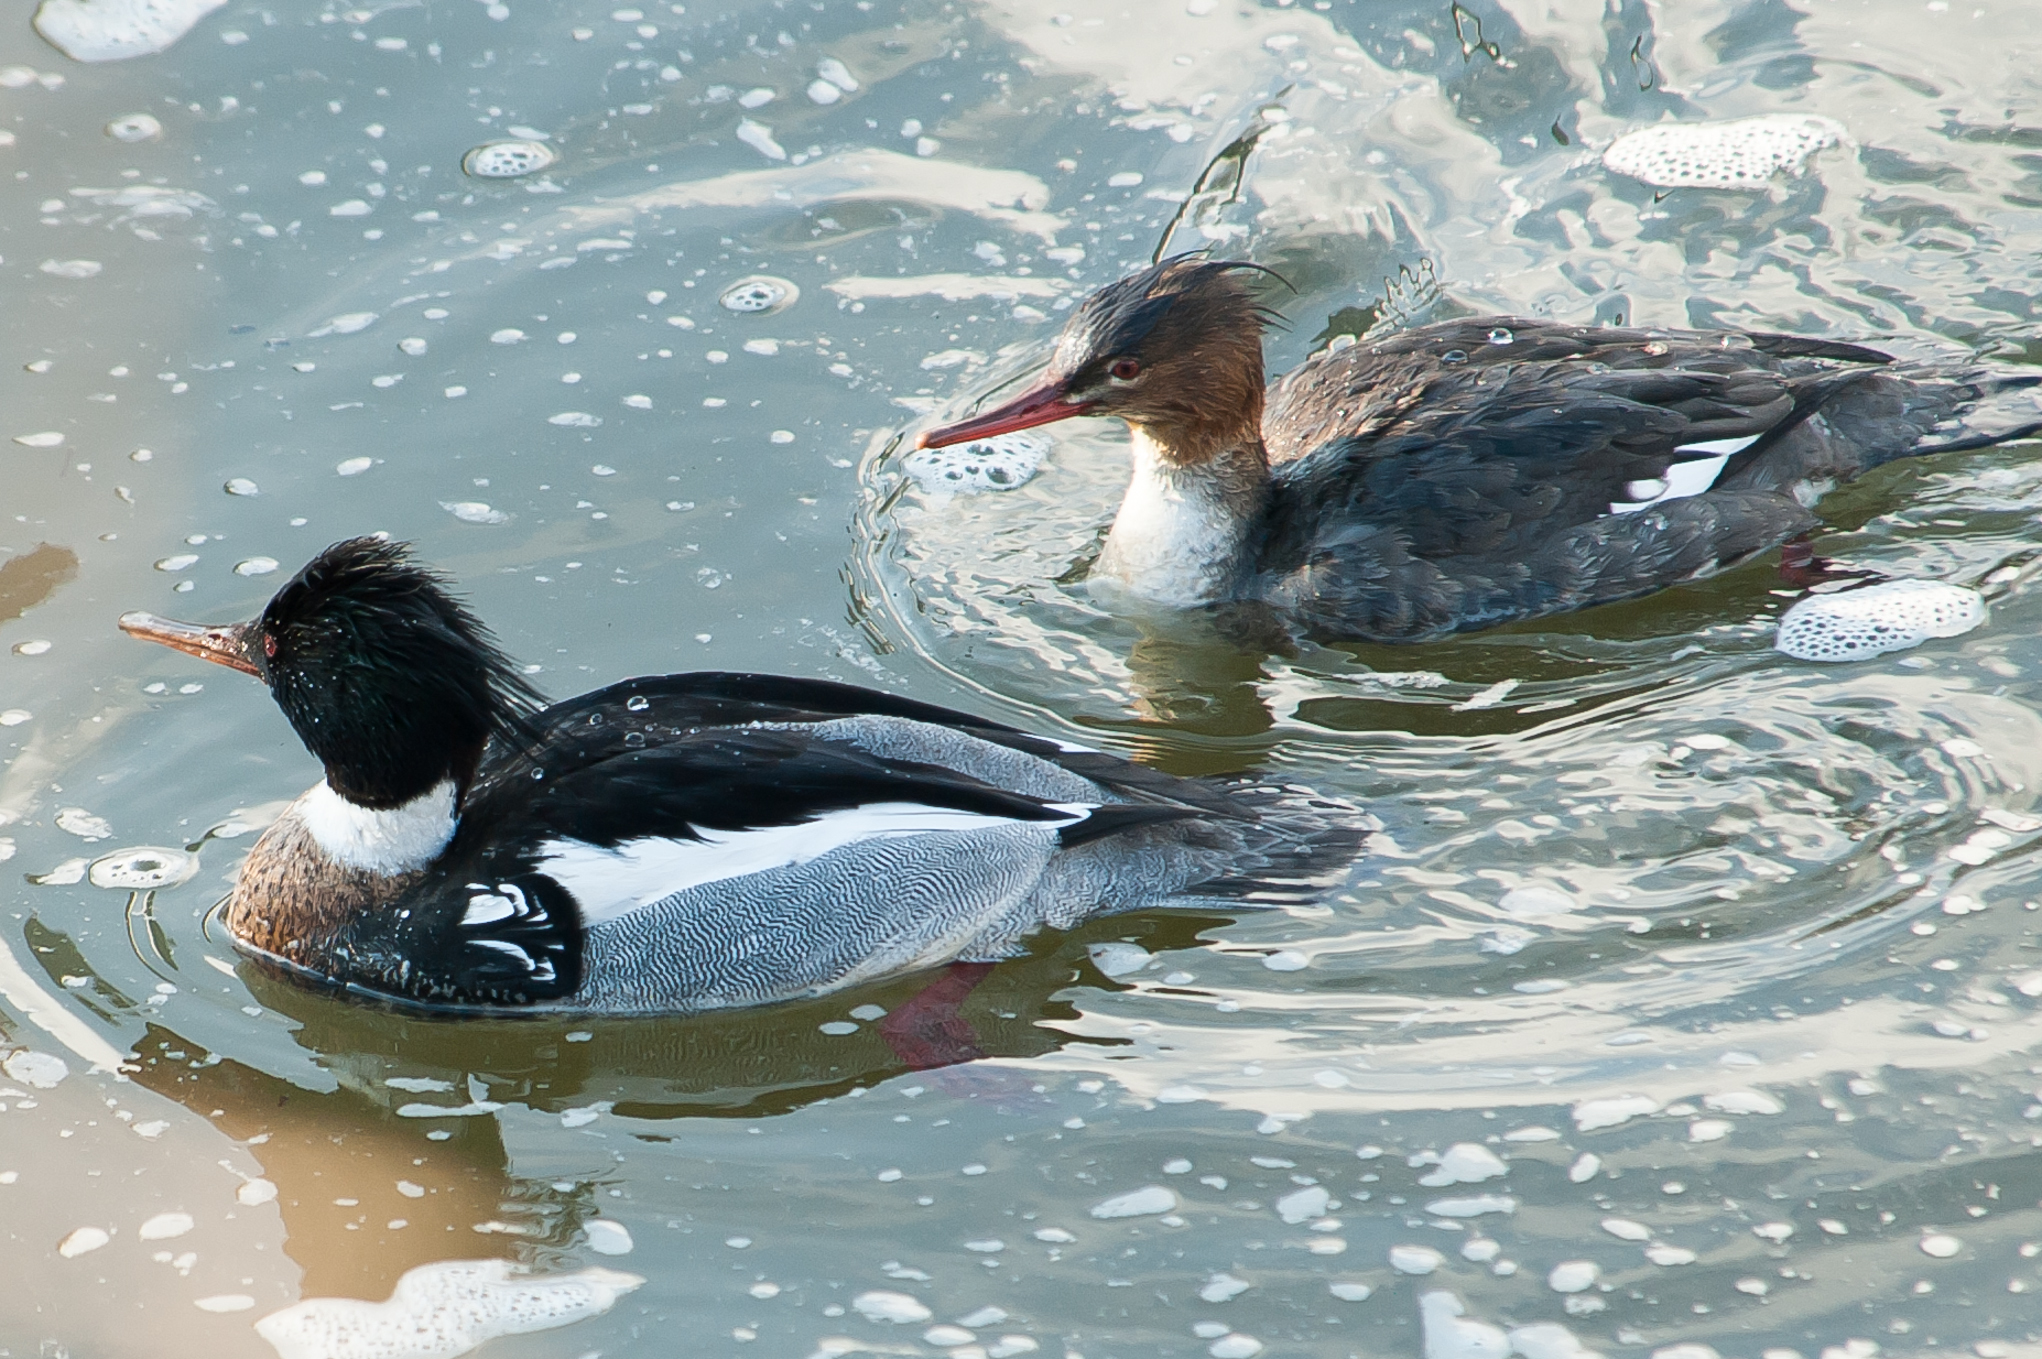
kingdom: Animalia
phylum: Chordata
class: Aves
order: Anseriformes
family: Anatidae
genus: Mergus
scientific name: Mergus serrator
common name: Red-breasted merganser
